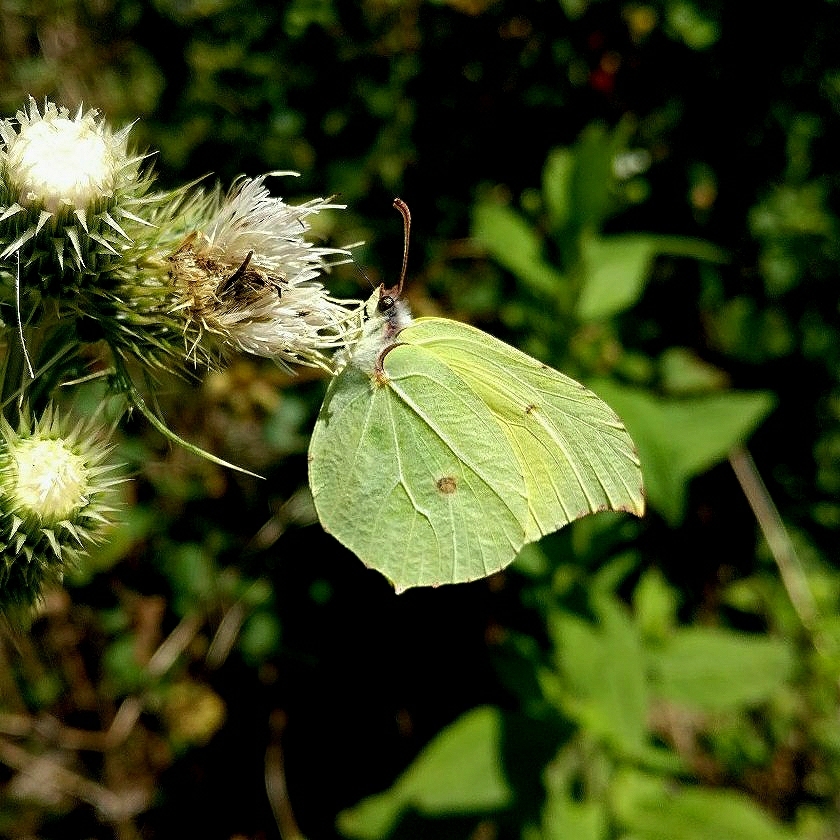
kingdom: Animalia
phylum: Arthropoda
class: Insecta
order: Lepidoptera
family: Pieridae
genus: Gonepteryx
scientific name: Gonepteryx
